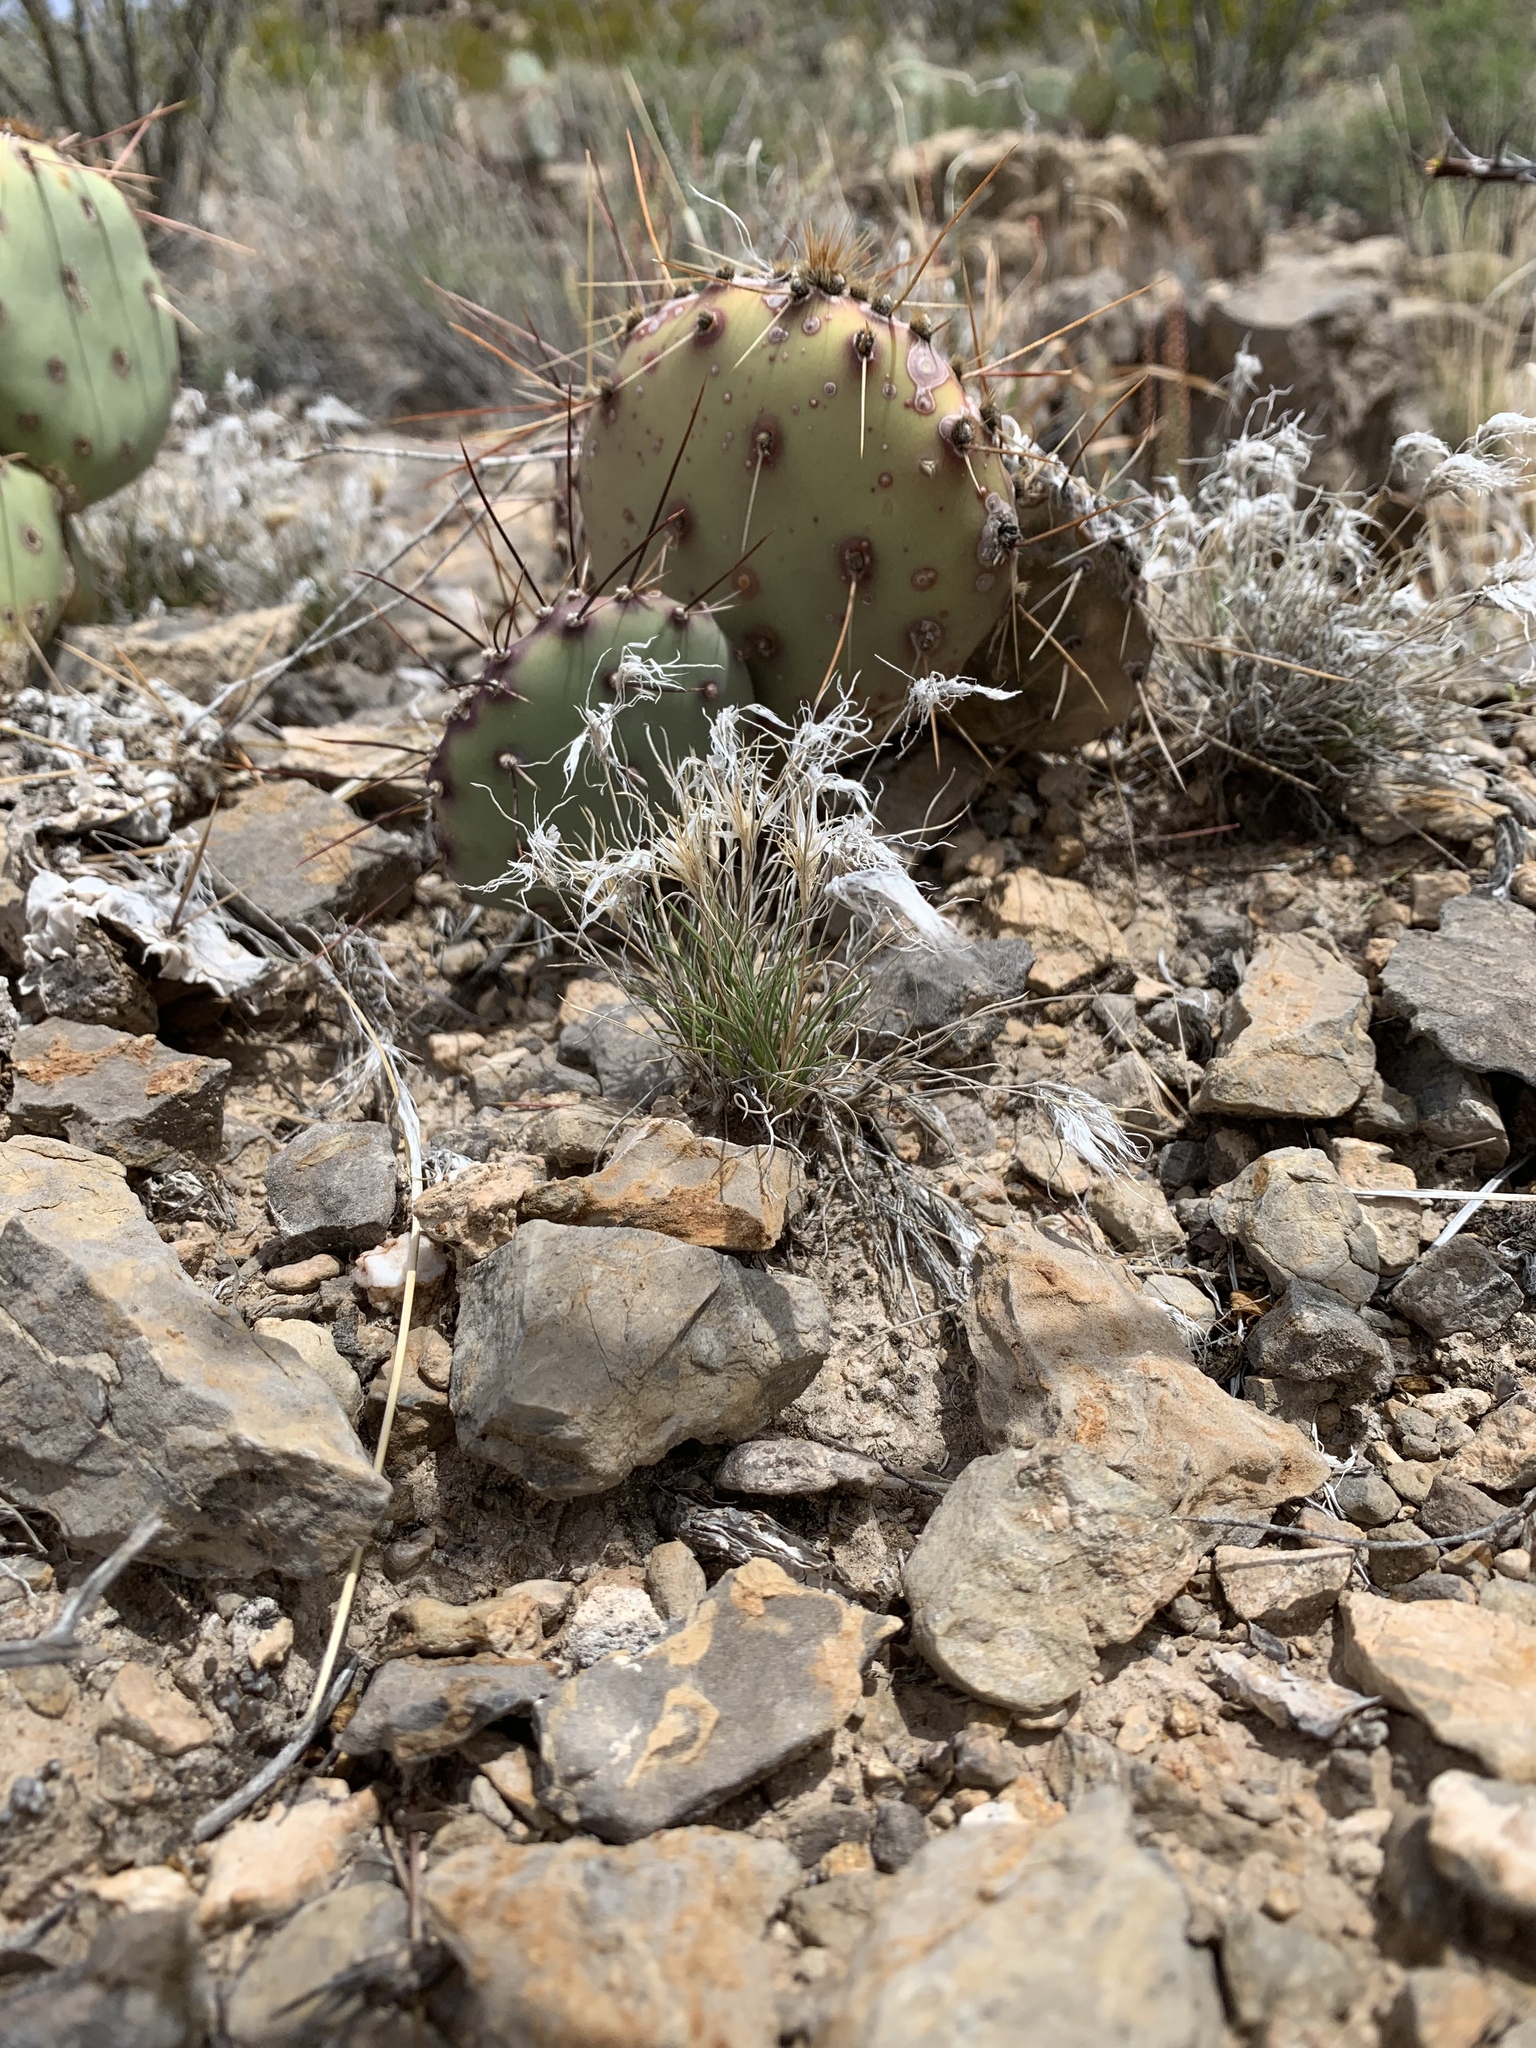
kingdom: Plantae
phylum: Tracheophyta
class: Liliopsida
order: Poales
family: Poaceae
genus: Dasyochloa
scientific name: Dasyochloa pulchella
